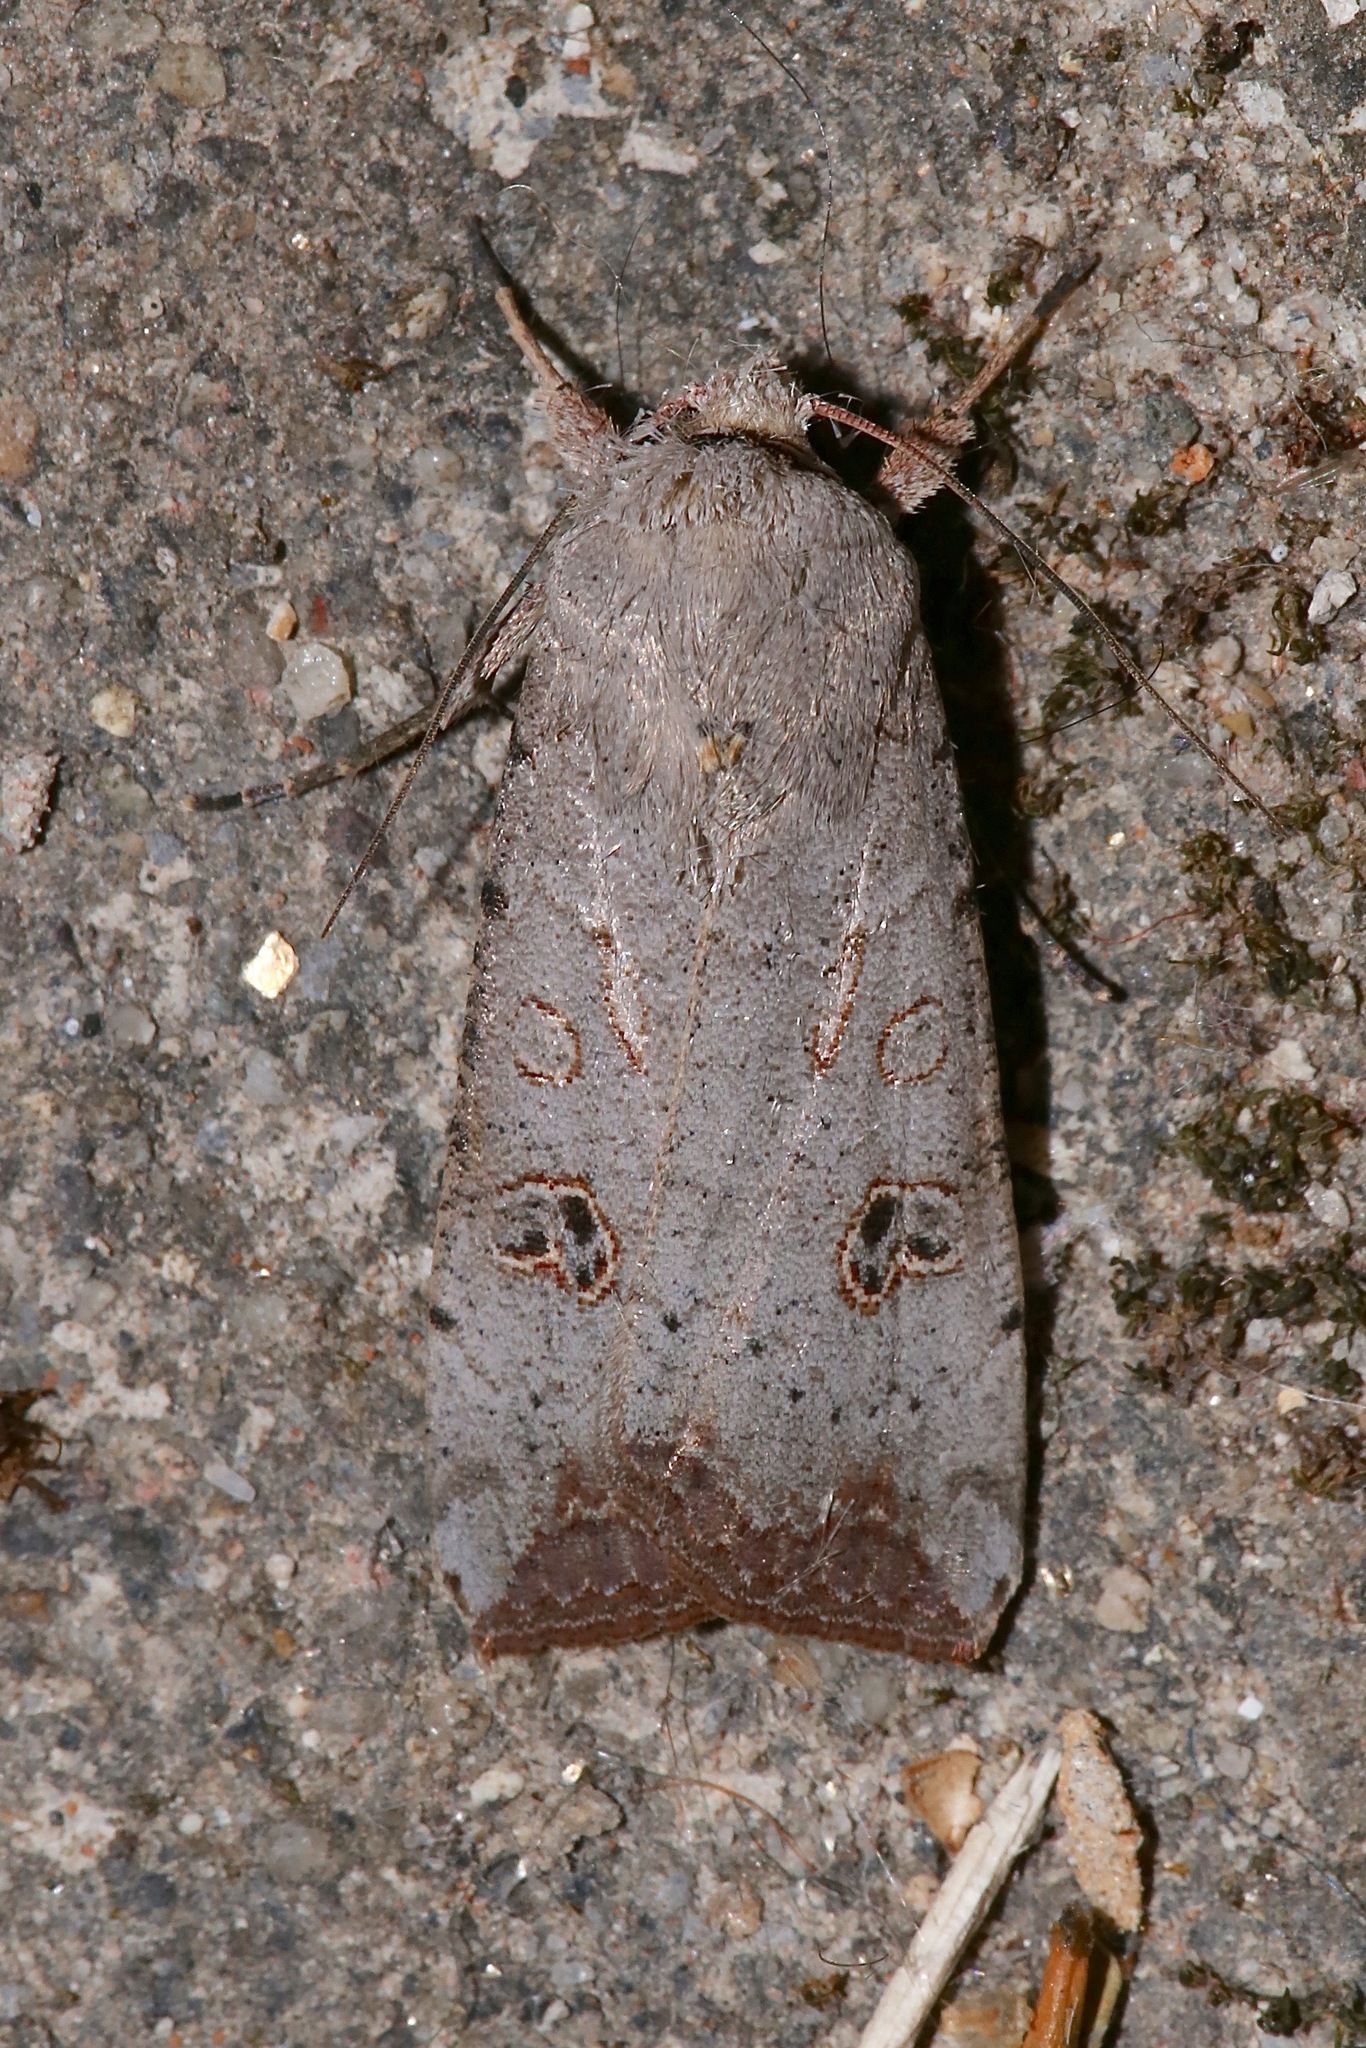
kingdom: Animalia
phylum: Arthropoda
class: Insecta
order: Lepidoptera
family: Noctuidae
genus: Anicla
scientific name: Anicla infecta
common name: Green cutworm
